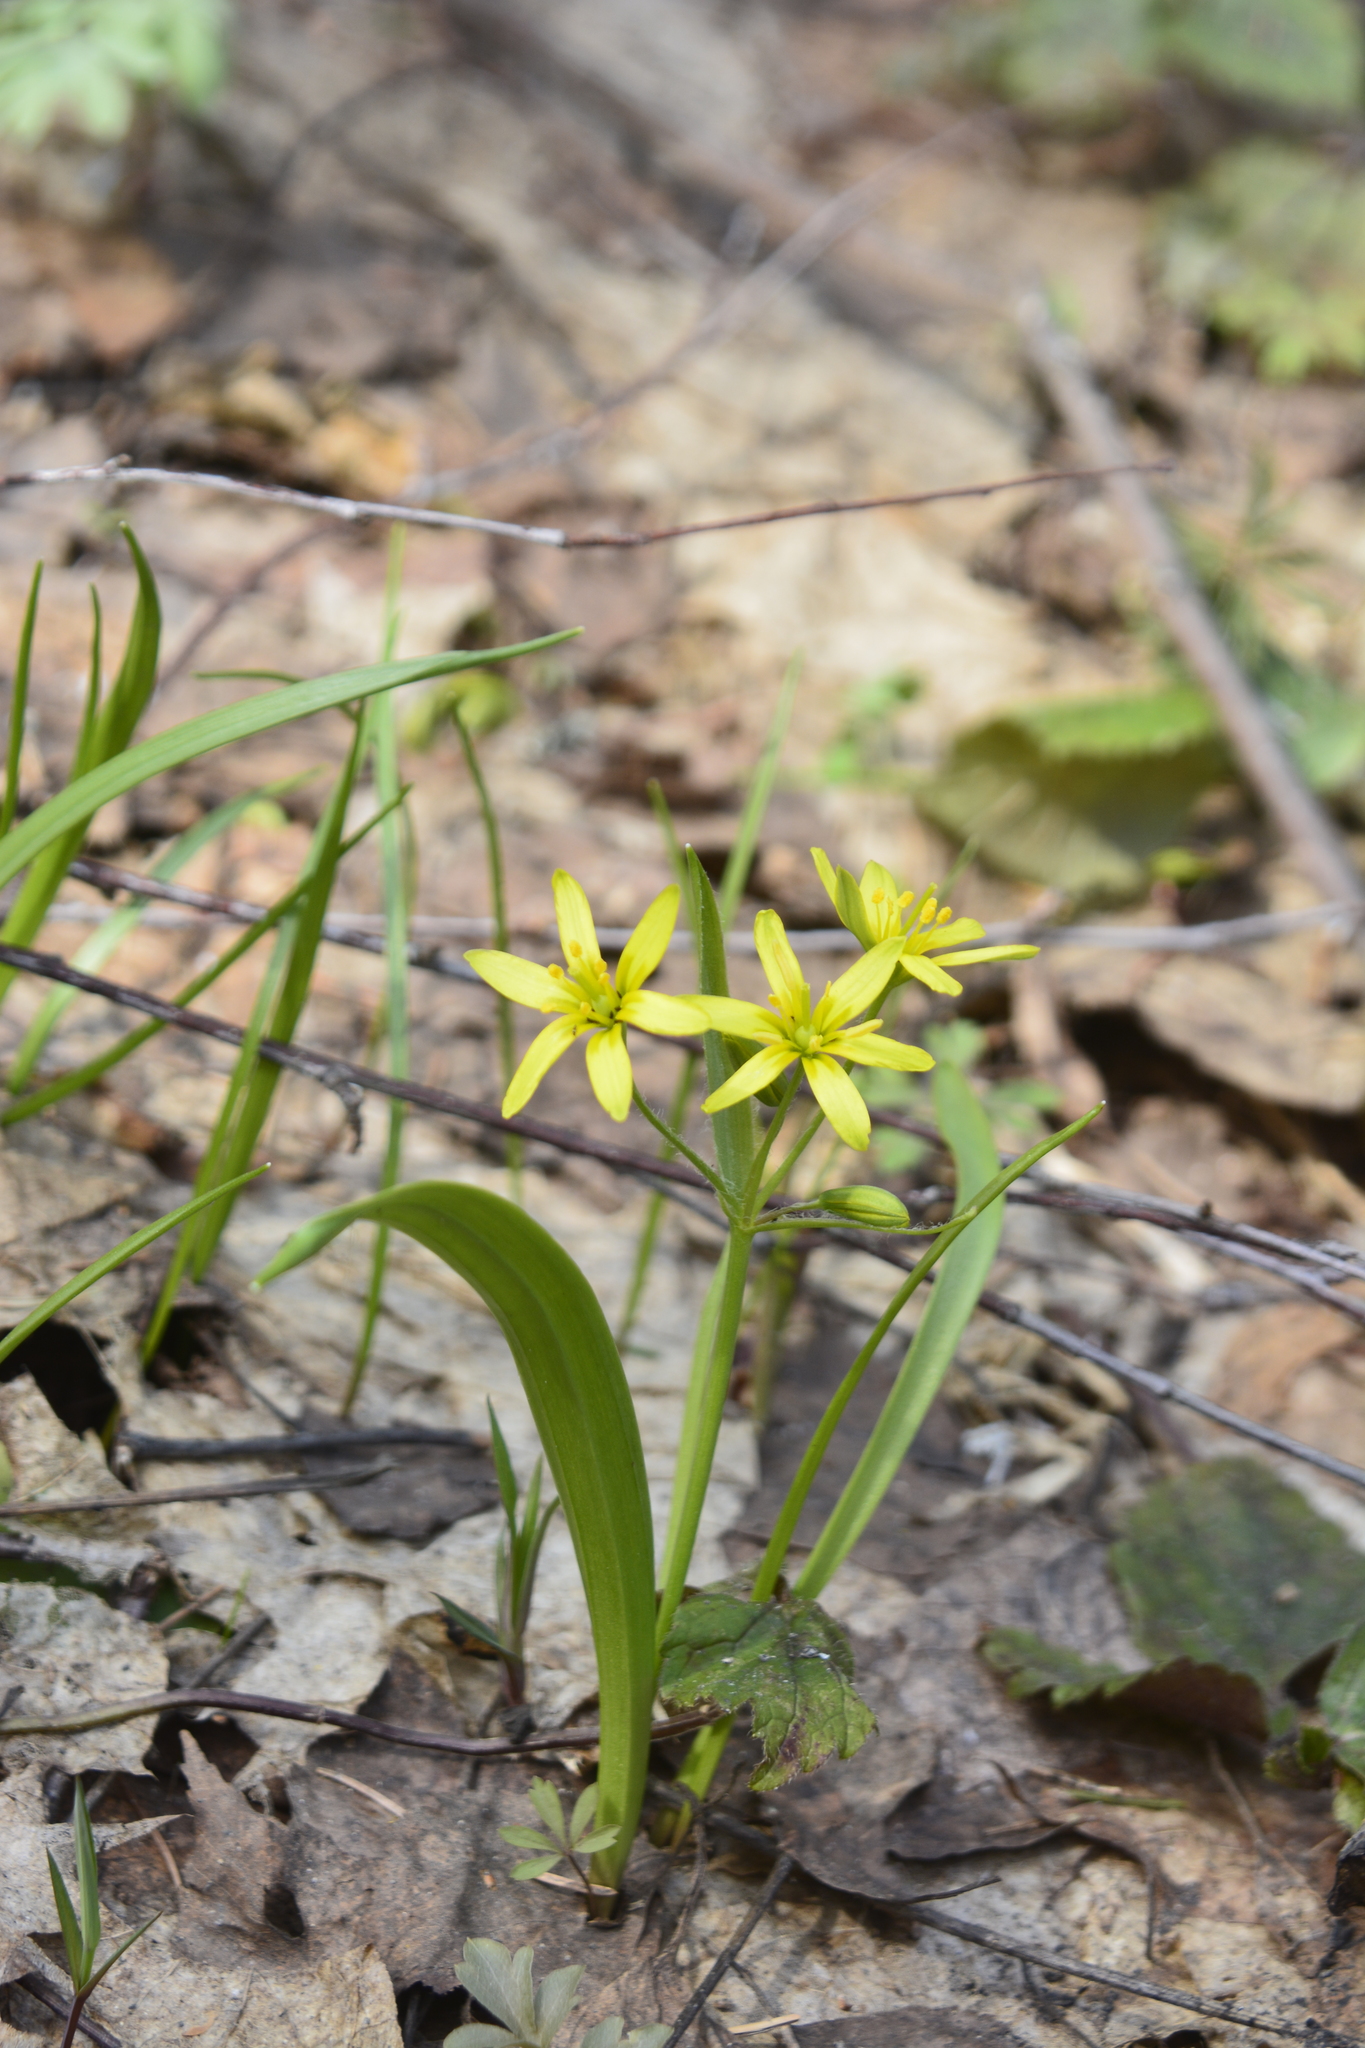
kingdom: Plantae
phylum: Tracheophyta
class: Liliopsida
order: Liliales
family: Liliaceae
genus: Gagea
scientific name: Gagea lutea
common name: Yellow star-of-bethlehem
